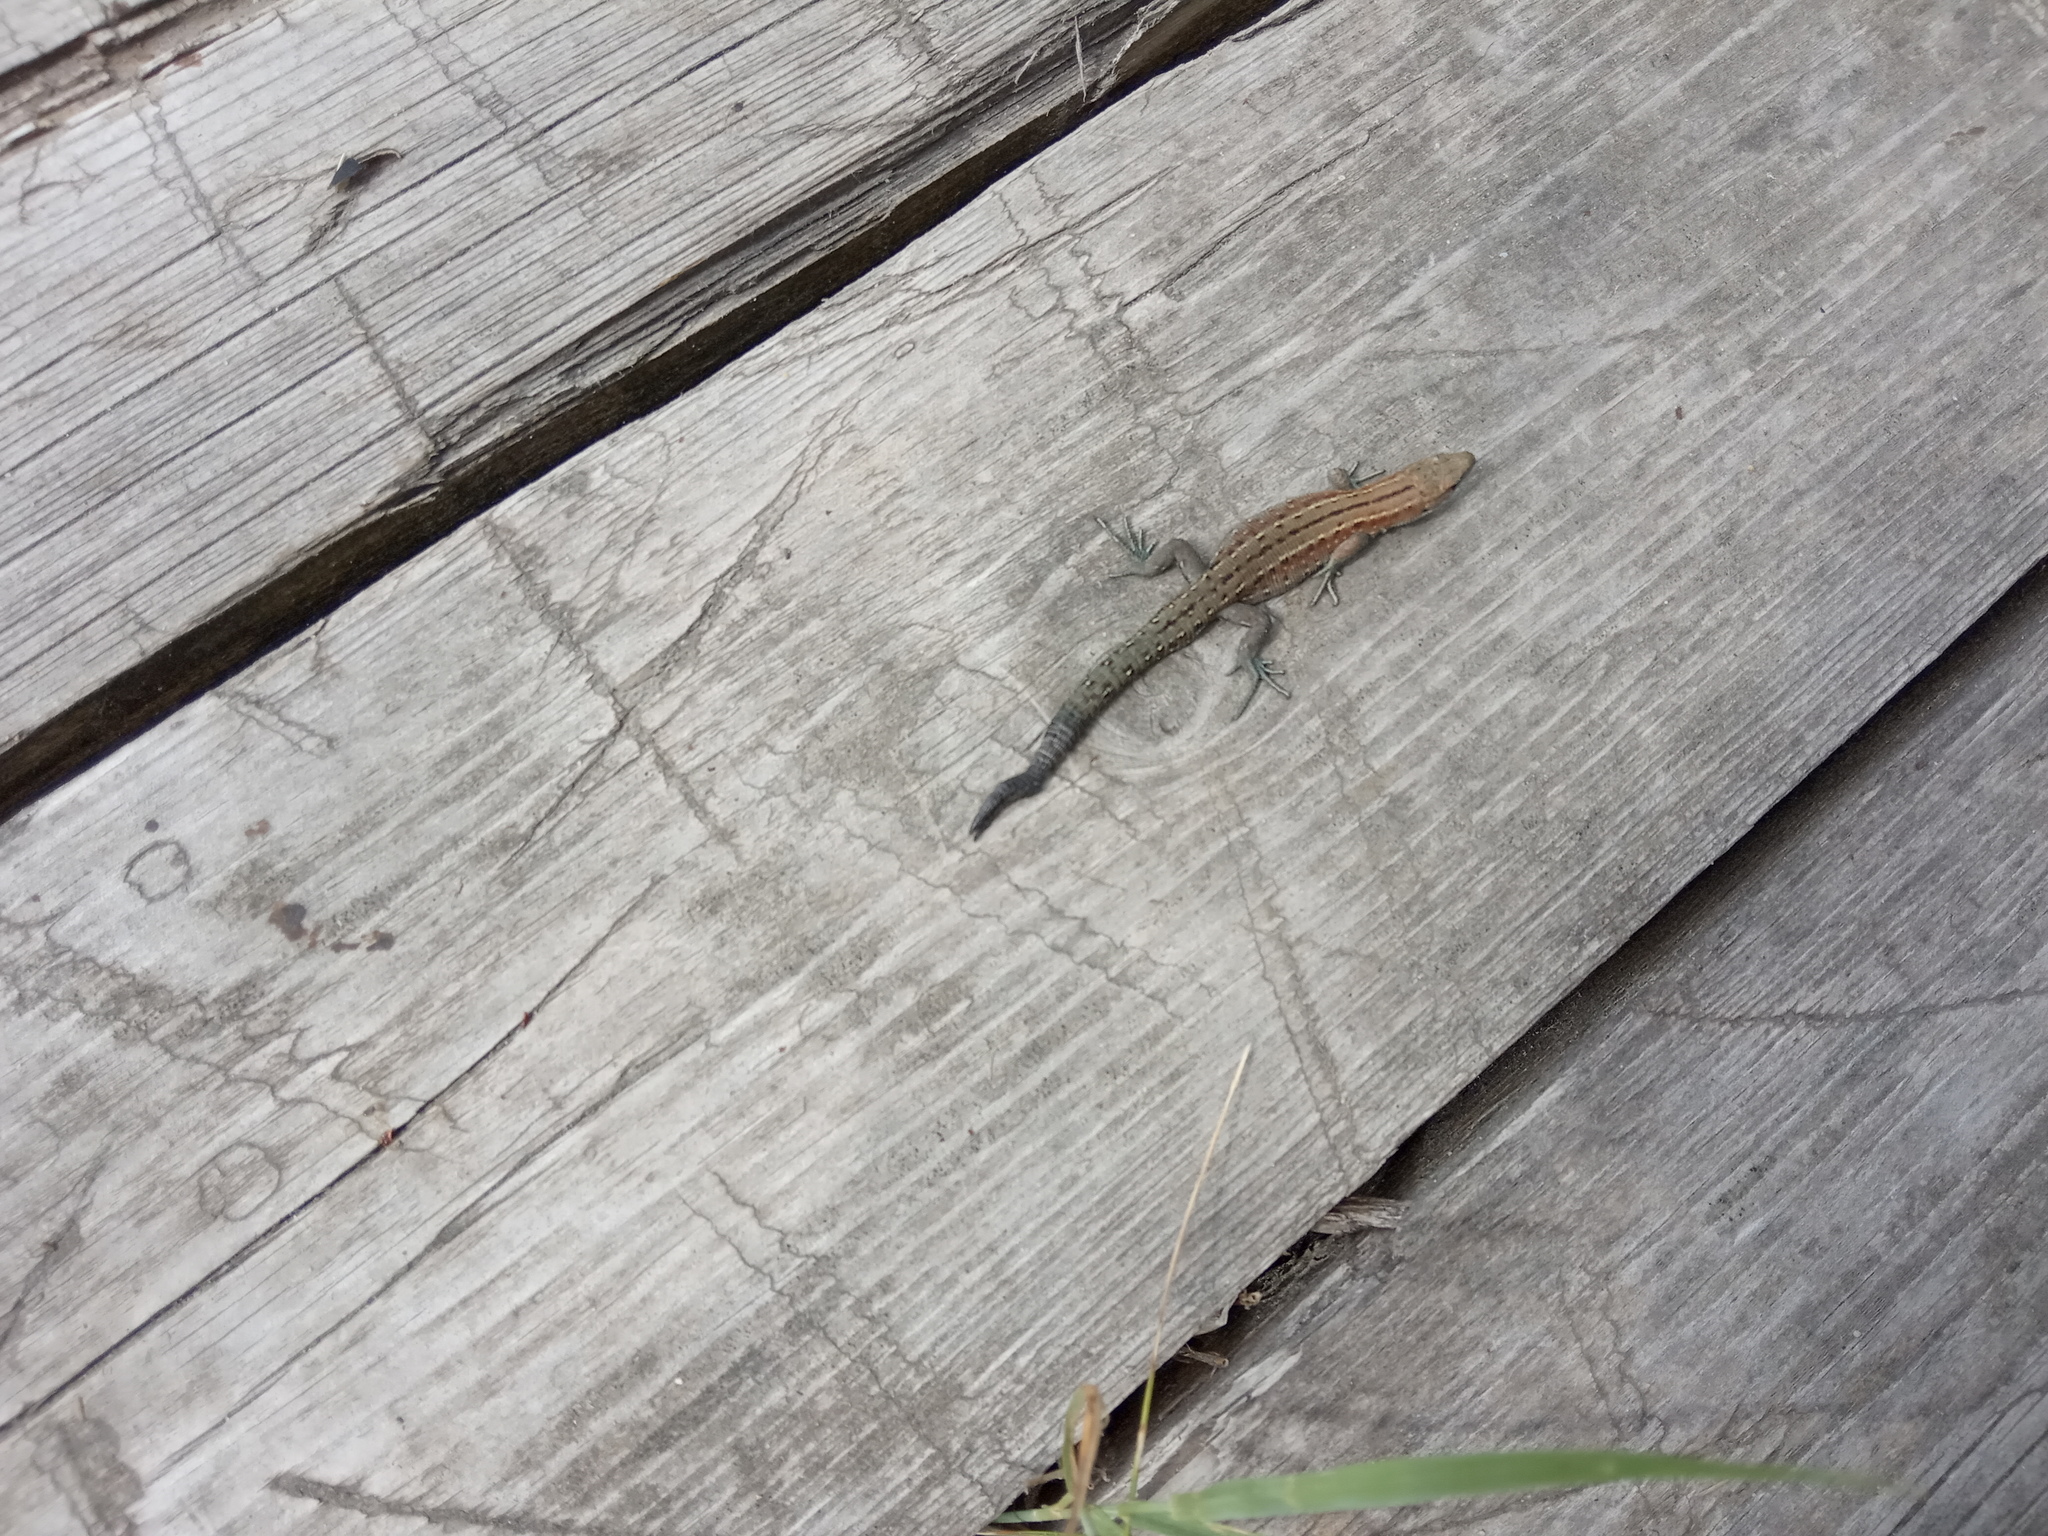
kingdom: Animalia
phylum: Chordata
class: Squamata
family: Lacertidae
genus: Zootoca
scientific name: Zootoca vivipara
